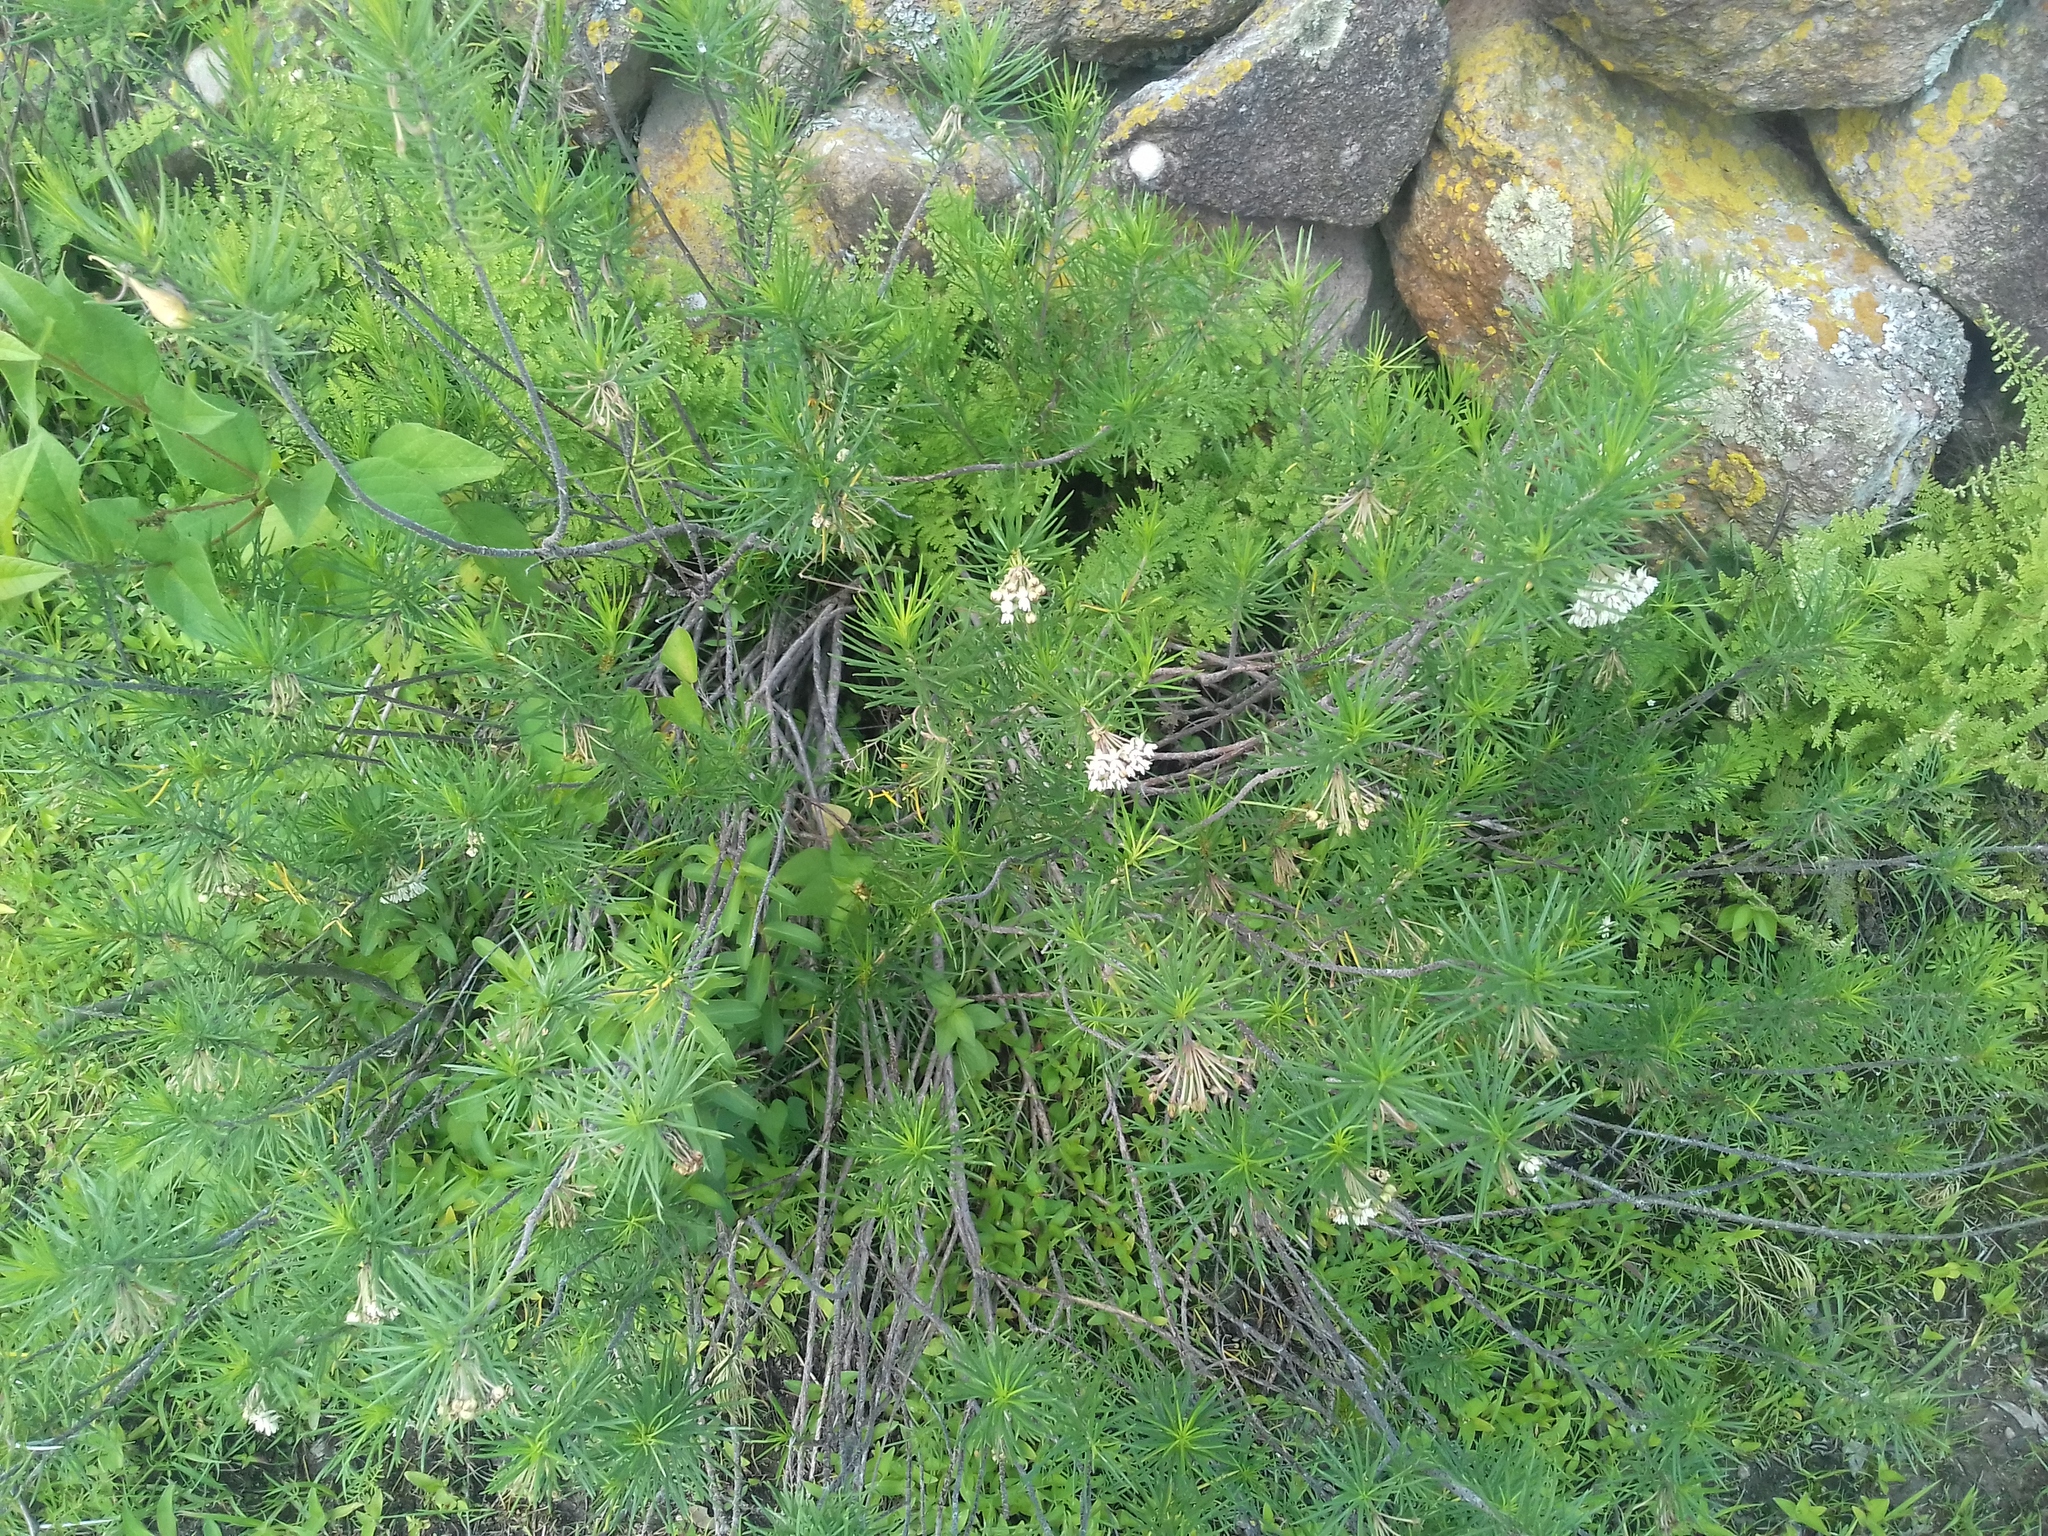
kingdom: Plantae
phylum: Tracheophyta
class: Magnoliopsida
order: Gentianales
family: Apocynaceae
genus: Asclepias
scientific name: Asclepias linaria
